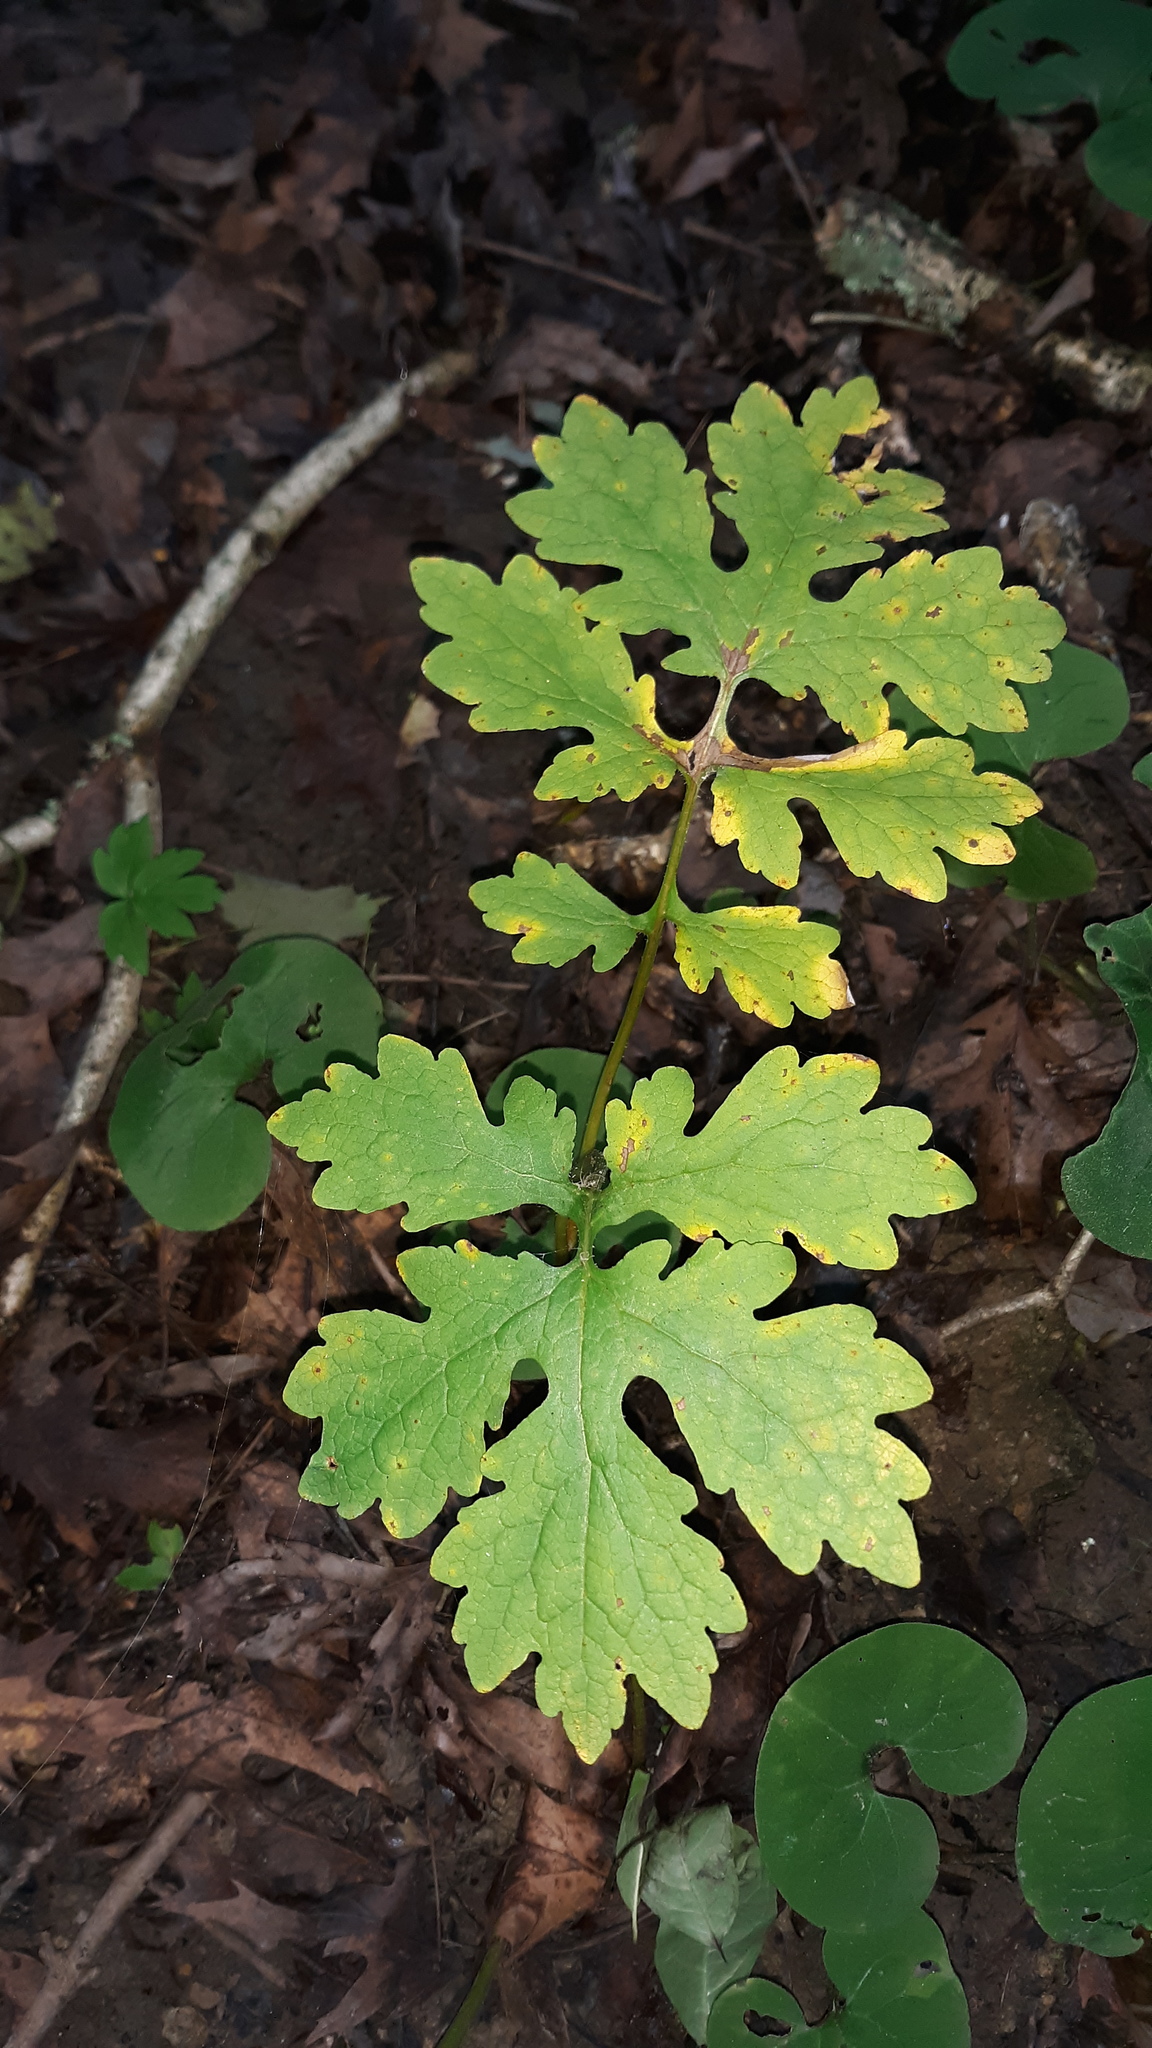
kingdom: Plantae
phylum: Tracheophyta
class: Magnoliopsida
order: Ranunculales
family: Papaveraceae
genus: Stylophorum
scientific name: Stylophorum diphyllum
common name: Celandine poppy
